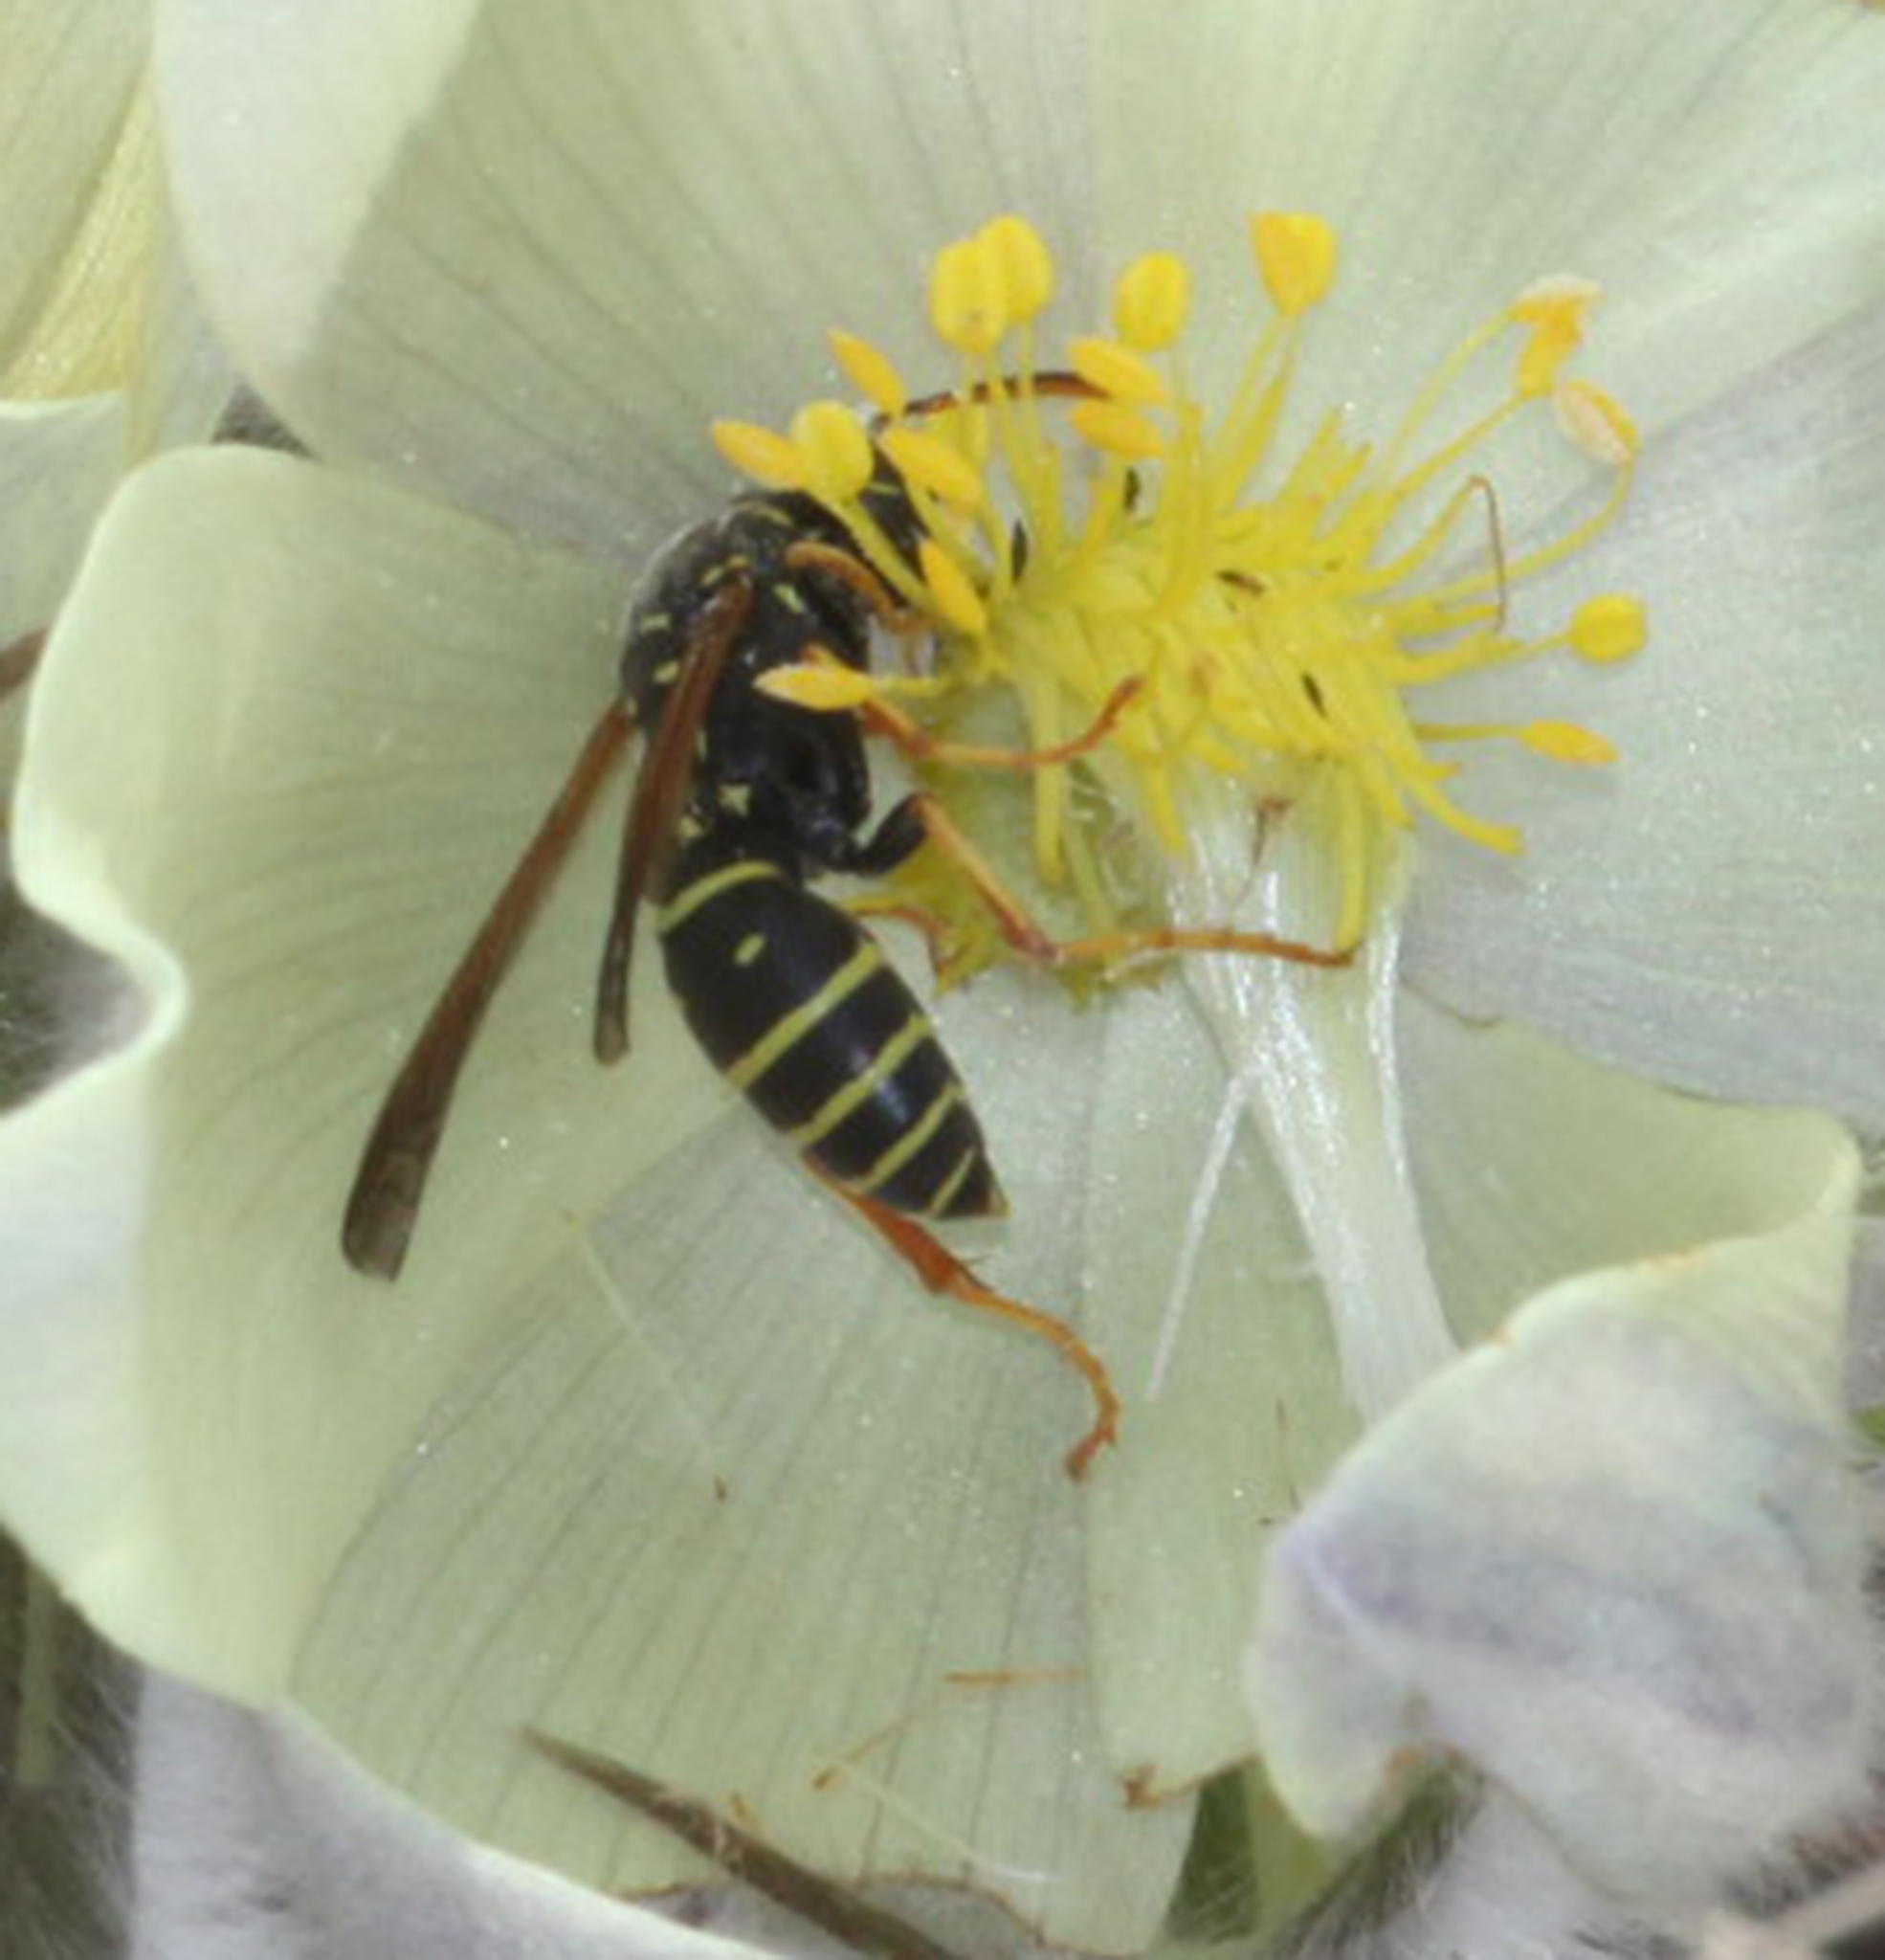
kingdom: Animalia
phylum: Arthropoda
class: Insecta
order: Hymenoptera
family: Eumenidae
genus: Polistes
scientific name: Polistes nimpha
